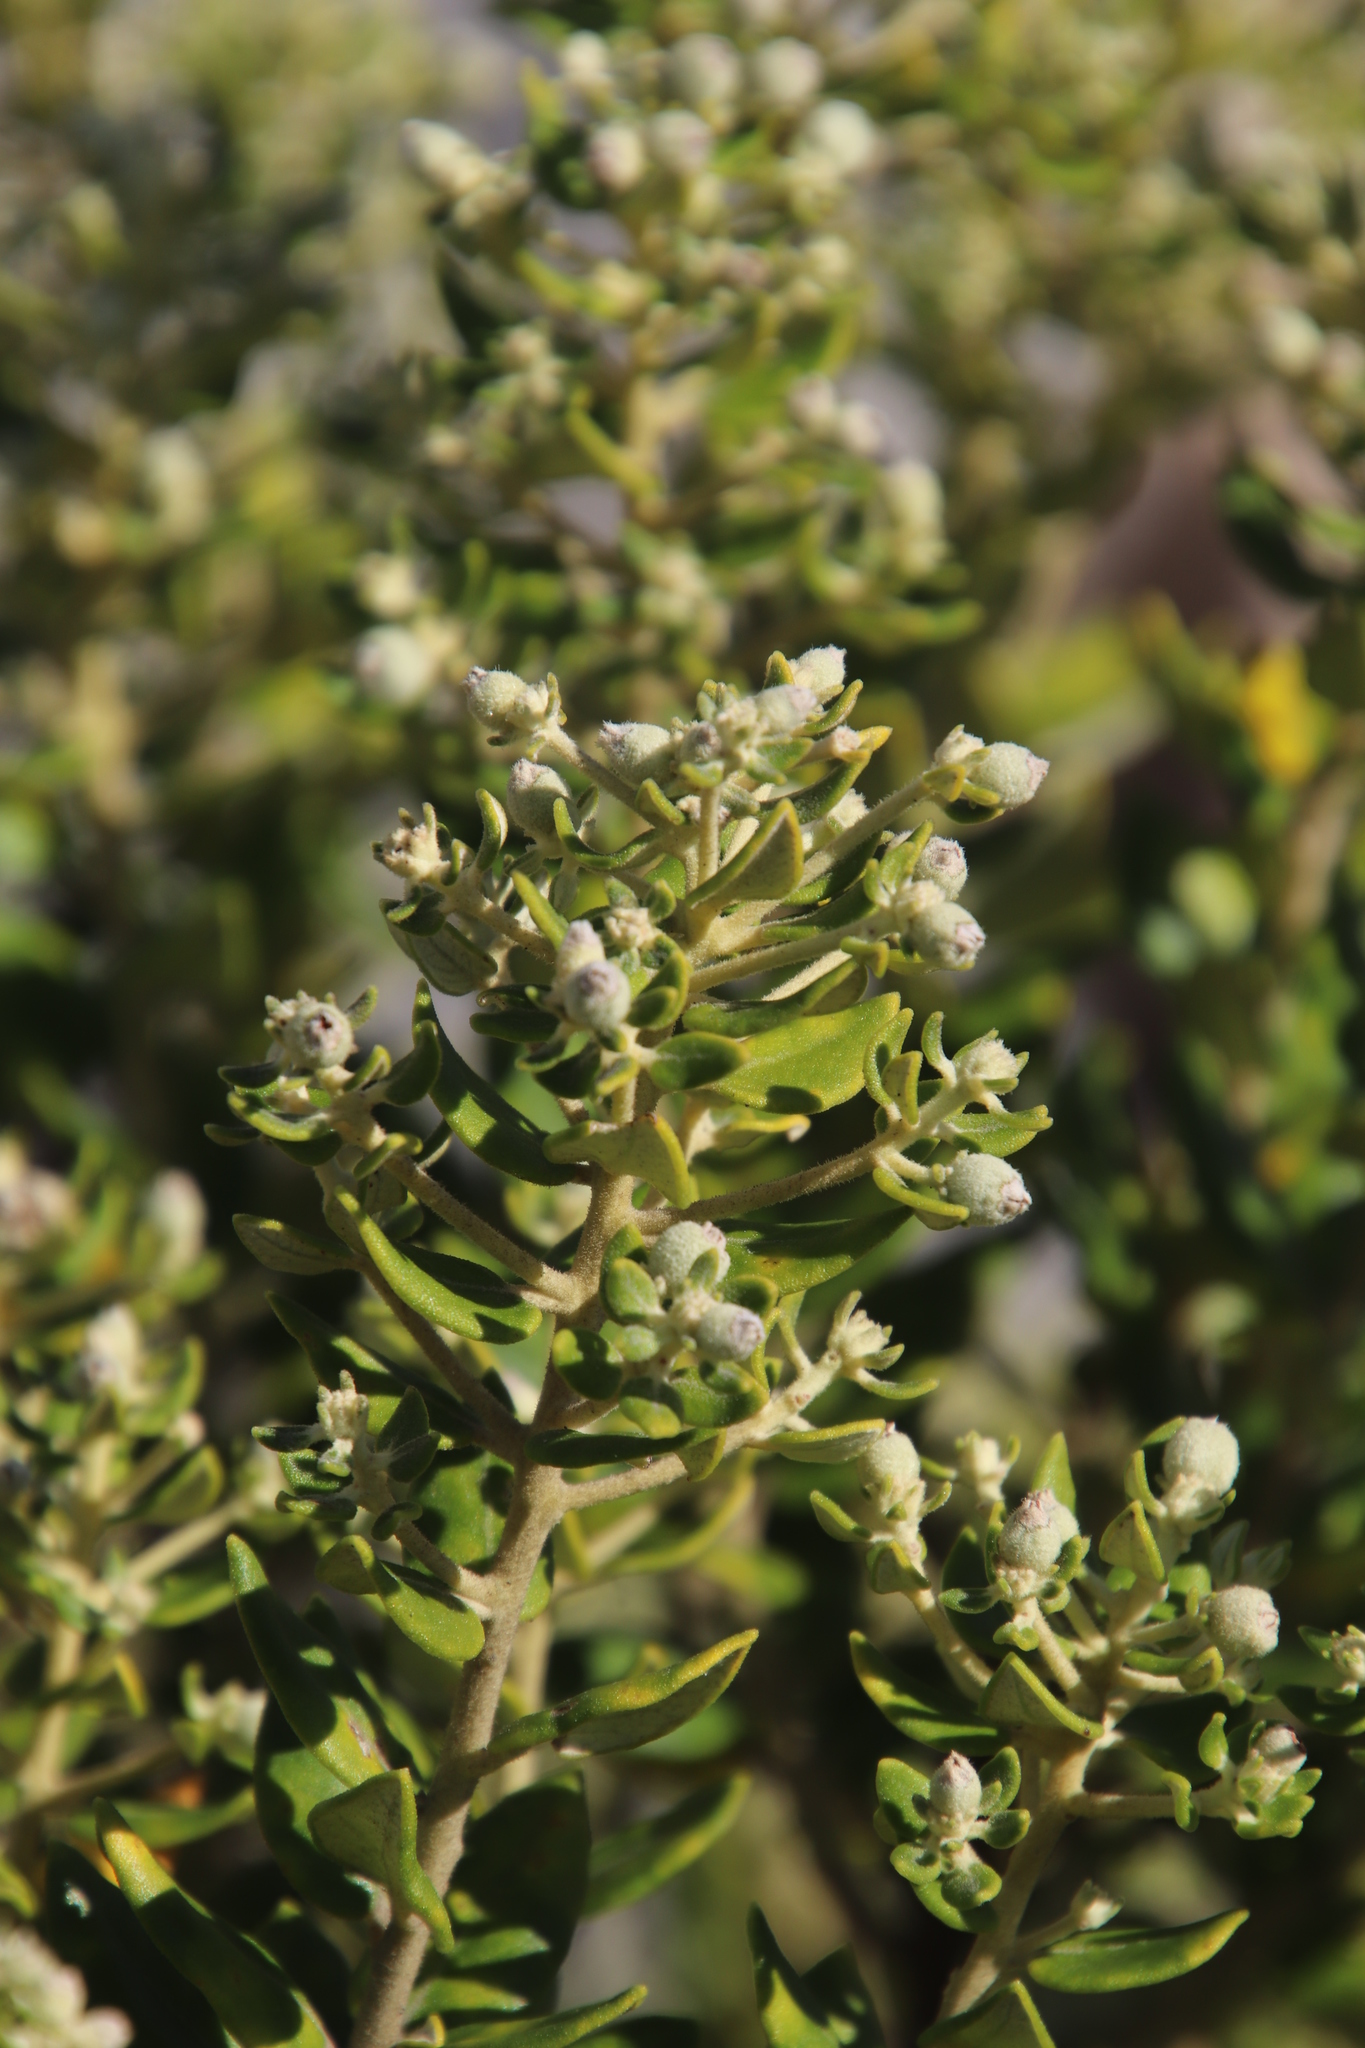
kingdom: Plantae
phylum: Tracheophyta
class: Magnoliopsida
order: Rosales
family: Rhamnaceae
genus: Phylica
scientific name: Phylica buxifolia
